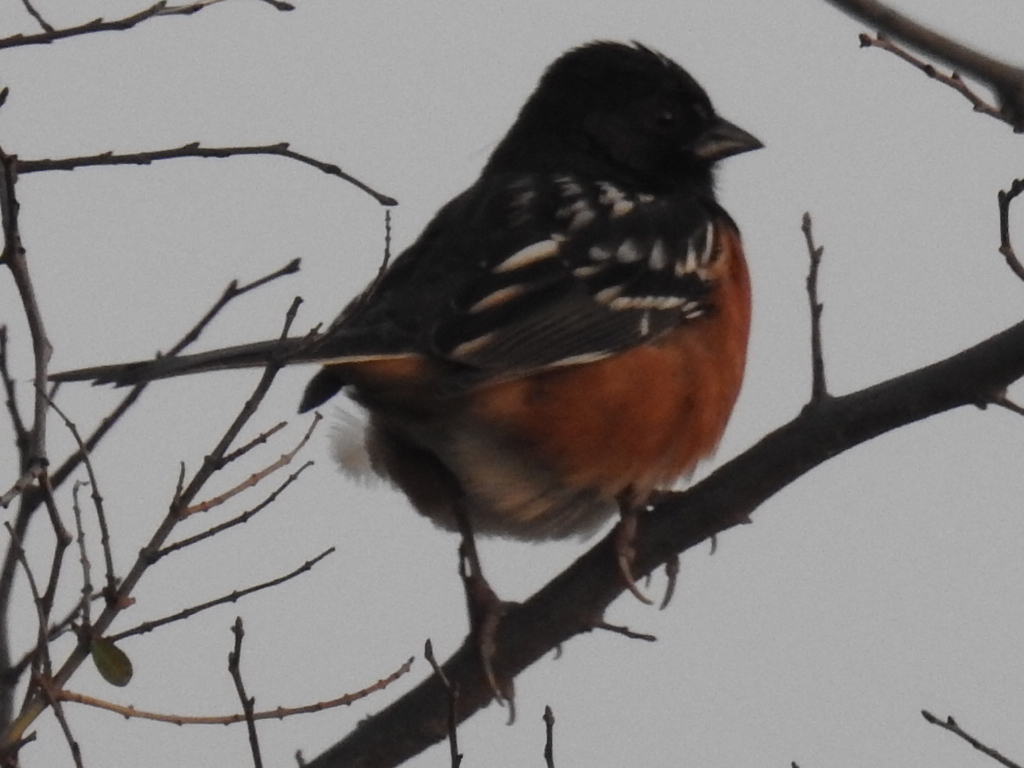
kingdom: Animalia
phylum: Chordata
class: Aves
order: Passeriformes
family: Passerellidae
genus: Pipilo
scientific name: Pipilo maculatus
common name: Spotted towhee
